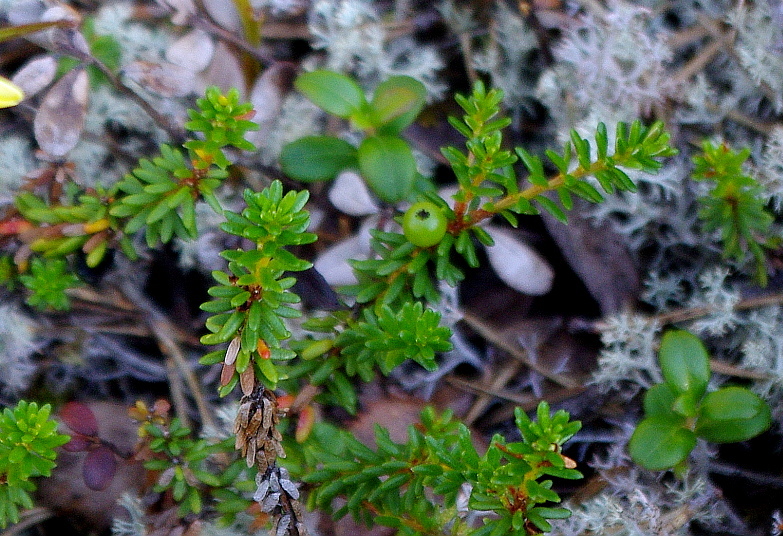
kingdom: Plantae
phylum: Tracheophyta
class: Magnoliopsida
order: Ericales
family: Ericaceae
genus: Empetrum
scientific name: Empetrum nigrum
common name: Black crowberry
